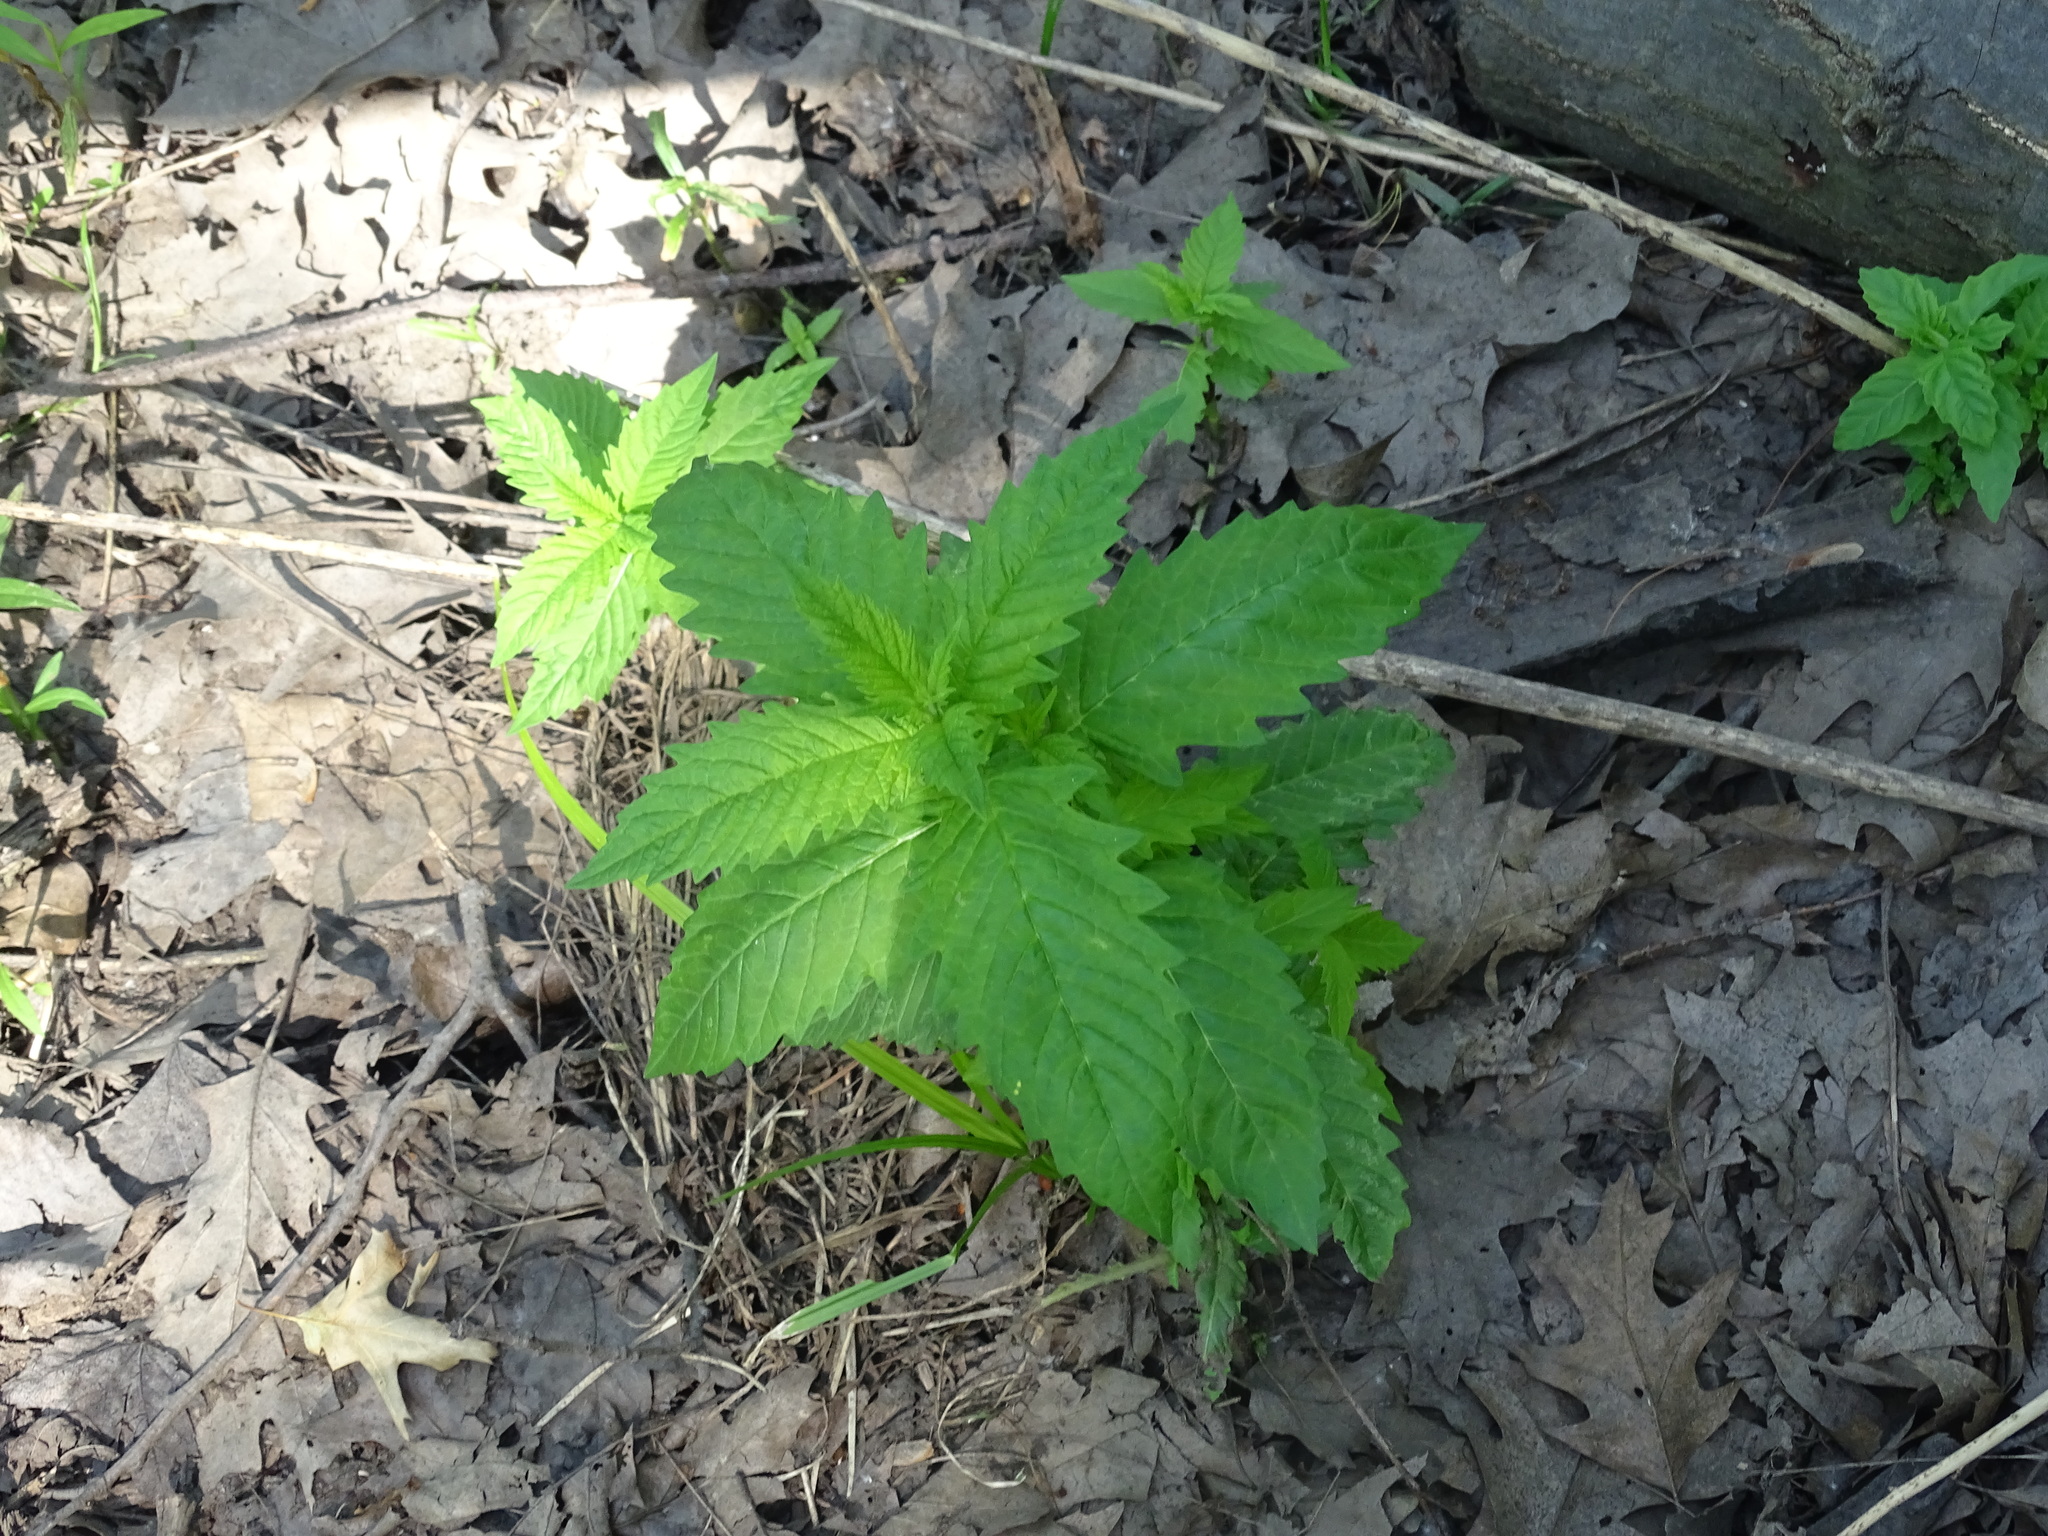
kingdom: Plantae
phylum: Tracheophyta
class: Magnoliopsida
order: Lamiales
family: Lamiaceae
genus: Lycopus
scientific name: Lycopus europaeus
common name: European bugleweed
